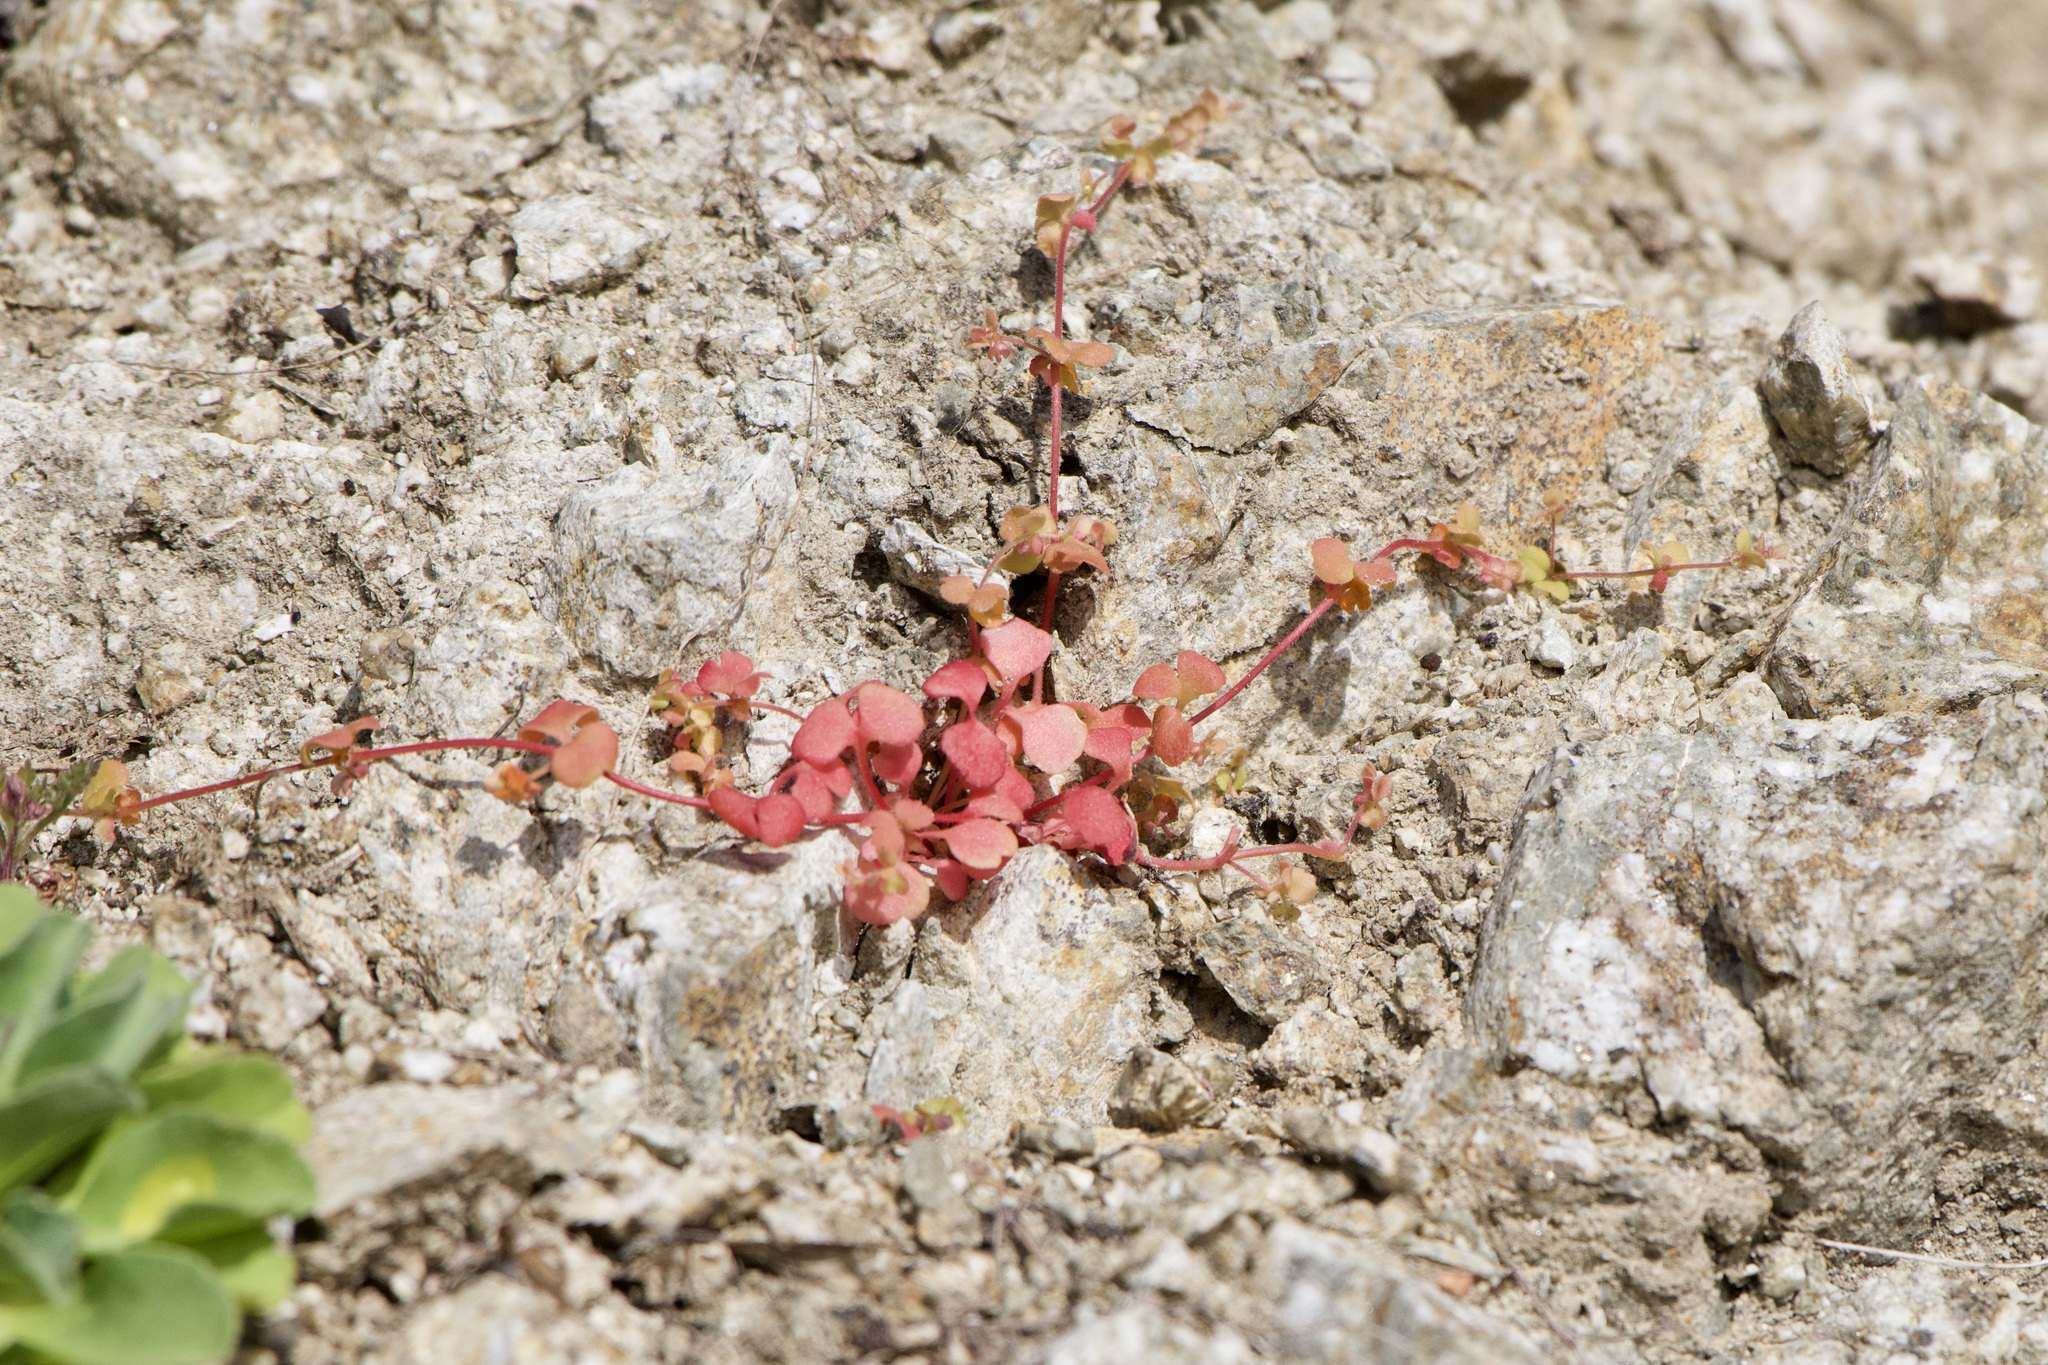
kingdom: Plantae
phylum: Tracheophyta
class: Magnoliopsida
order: Caryophyllales
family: Polygonaceae
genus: Pterostegia
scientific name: Pterostegia drymarioides
